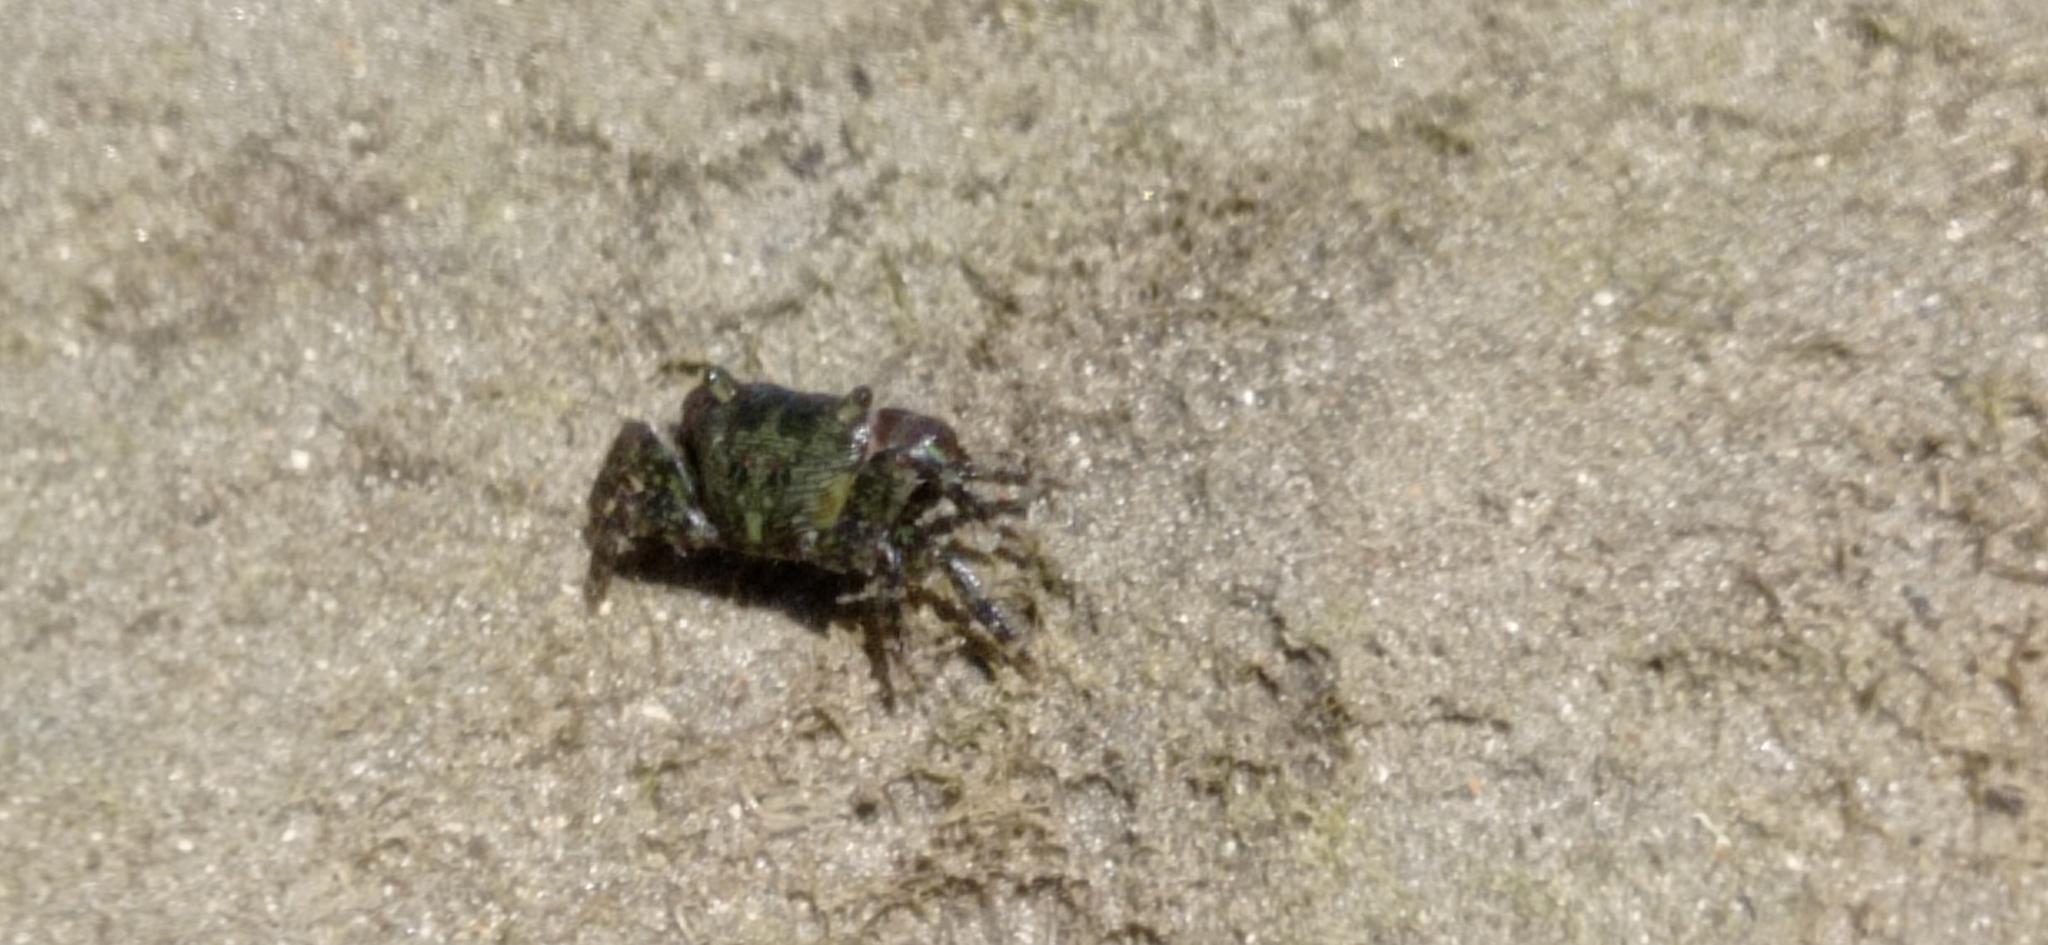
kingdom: Animalia
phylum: Arthropoda
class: Malacostraca
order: Decapoda
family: Grapsidae
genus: Pachygrapsus
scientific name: Pachygrapsus transversus
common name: Mottled shore crab
